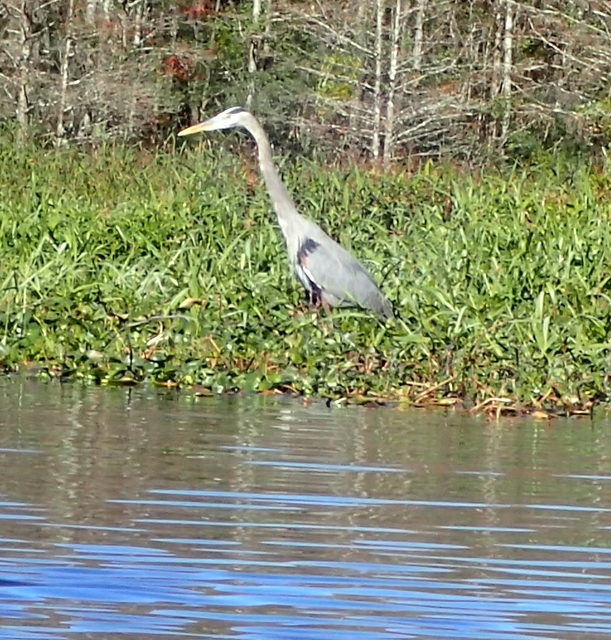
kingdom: Animalia
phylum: Chordata
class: Aves
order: Pelecaniformes
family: Ardeidae
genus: Ardea
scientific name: Ardea herodias
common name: Great blue heron
